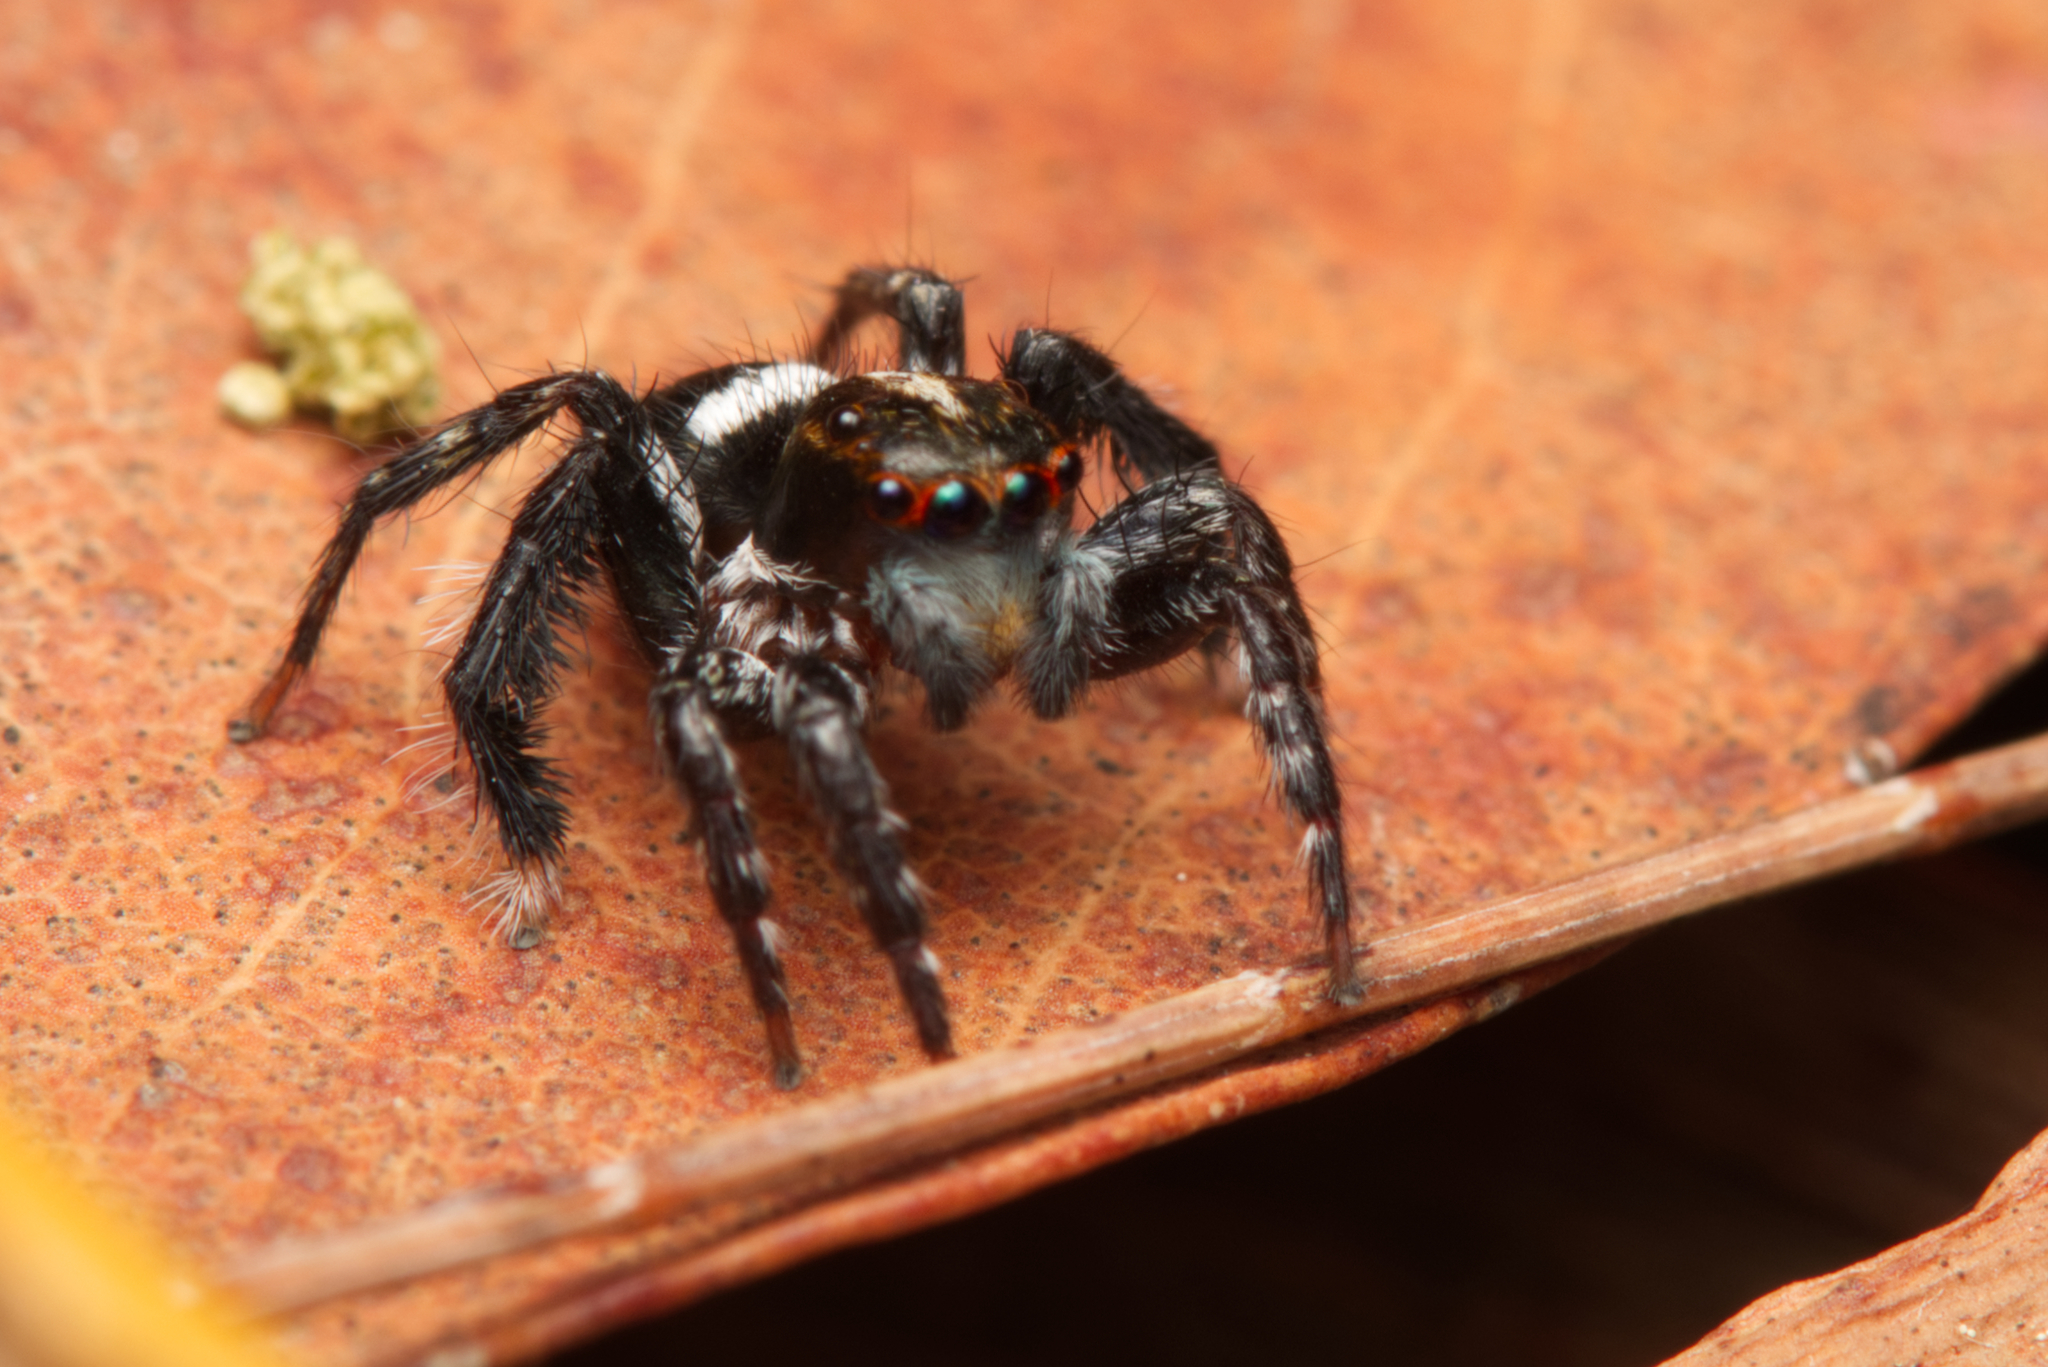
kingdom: Animalia
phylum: Arthropoda
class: Arachnida
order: Araneae
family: Salticidae
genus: Saitis
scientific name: Saitis virgatus
